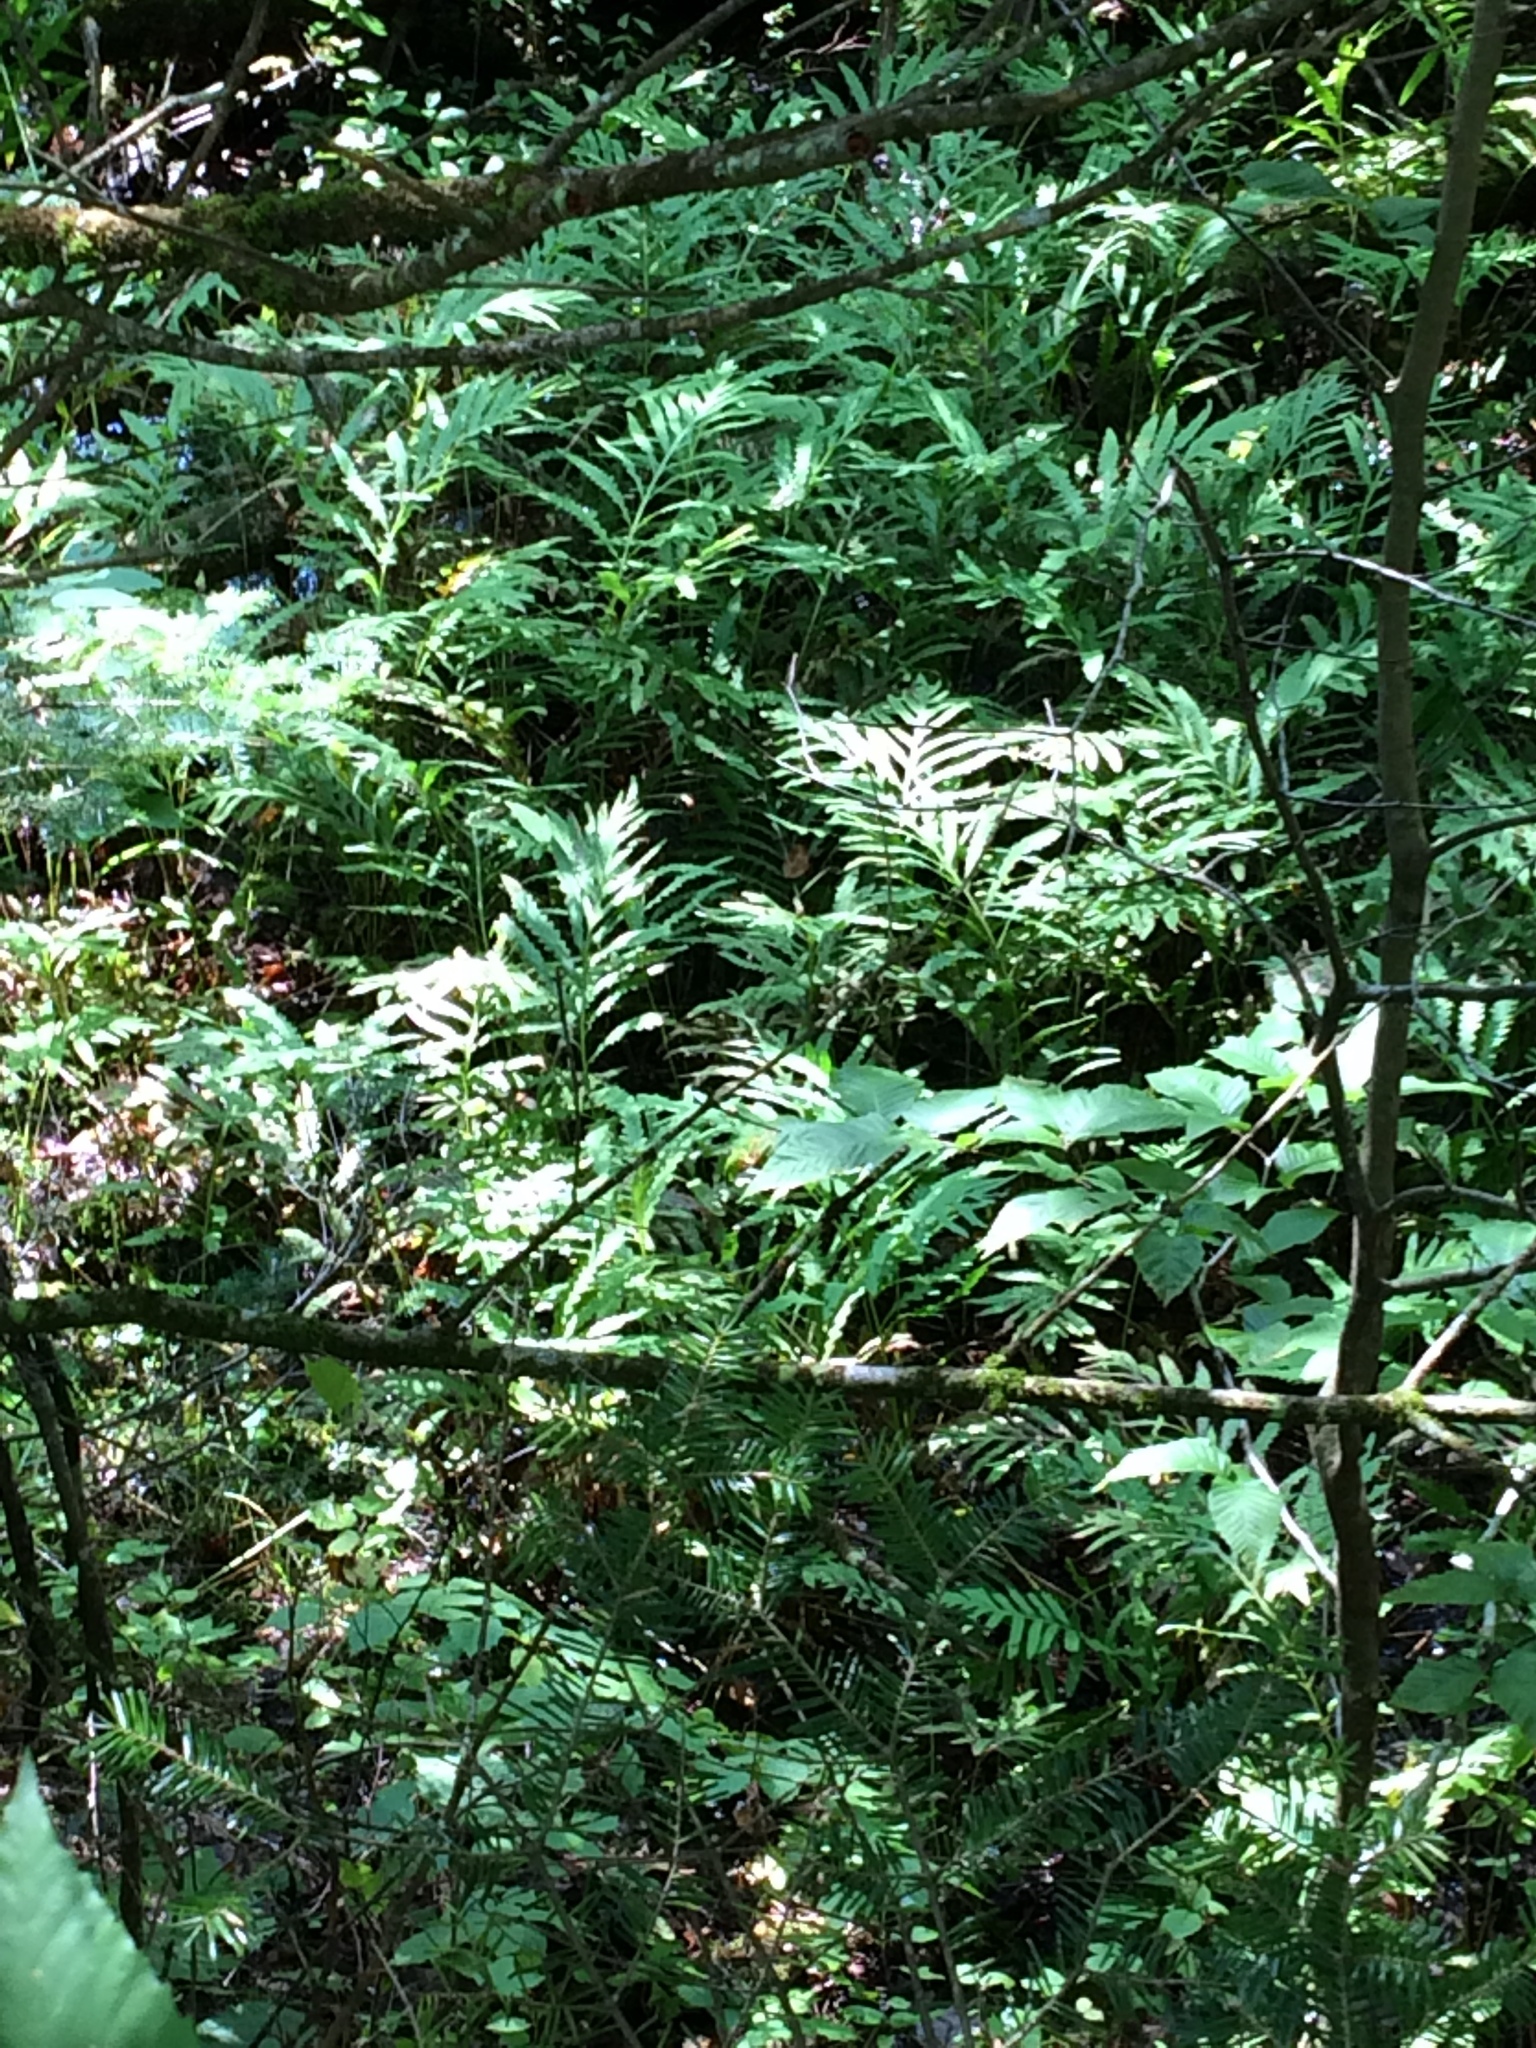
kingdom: Plantae
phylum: Tracheophyta
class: Polypodiopsida
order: Polypodiales
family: Onocleaceae
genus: Onoclea
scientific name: Onoclea sensibilis
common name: Sensitive fern
